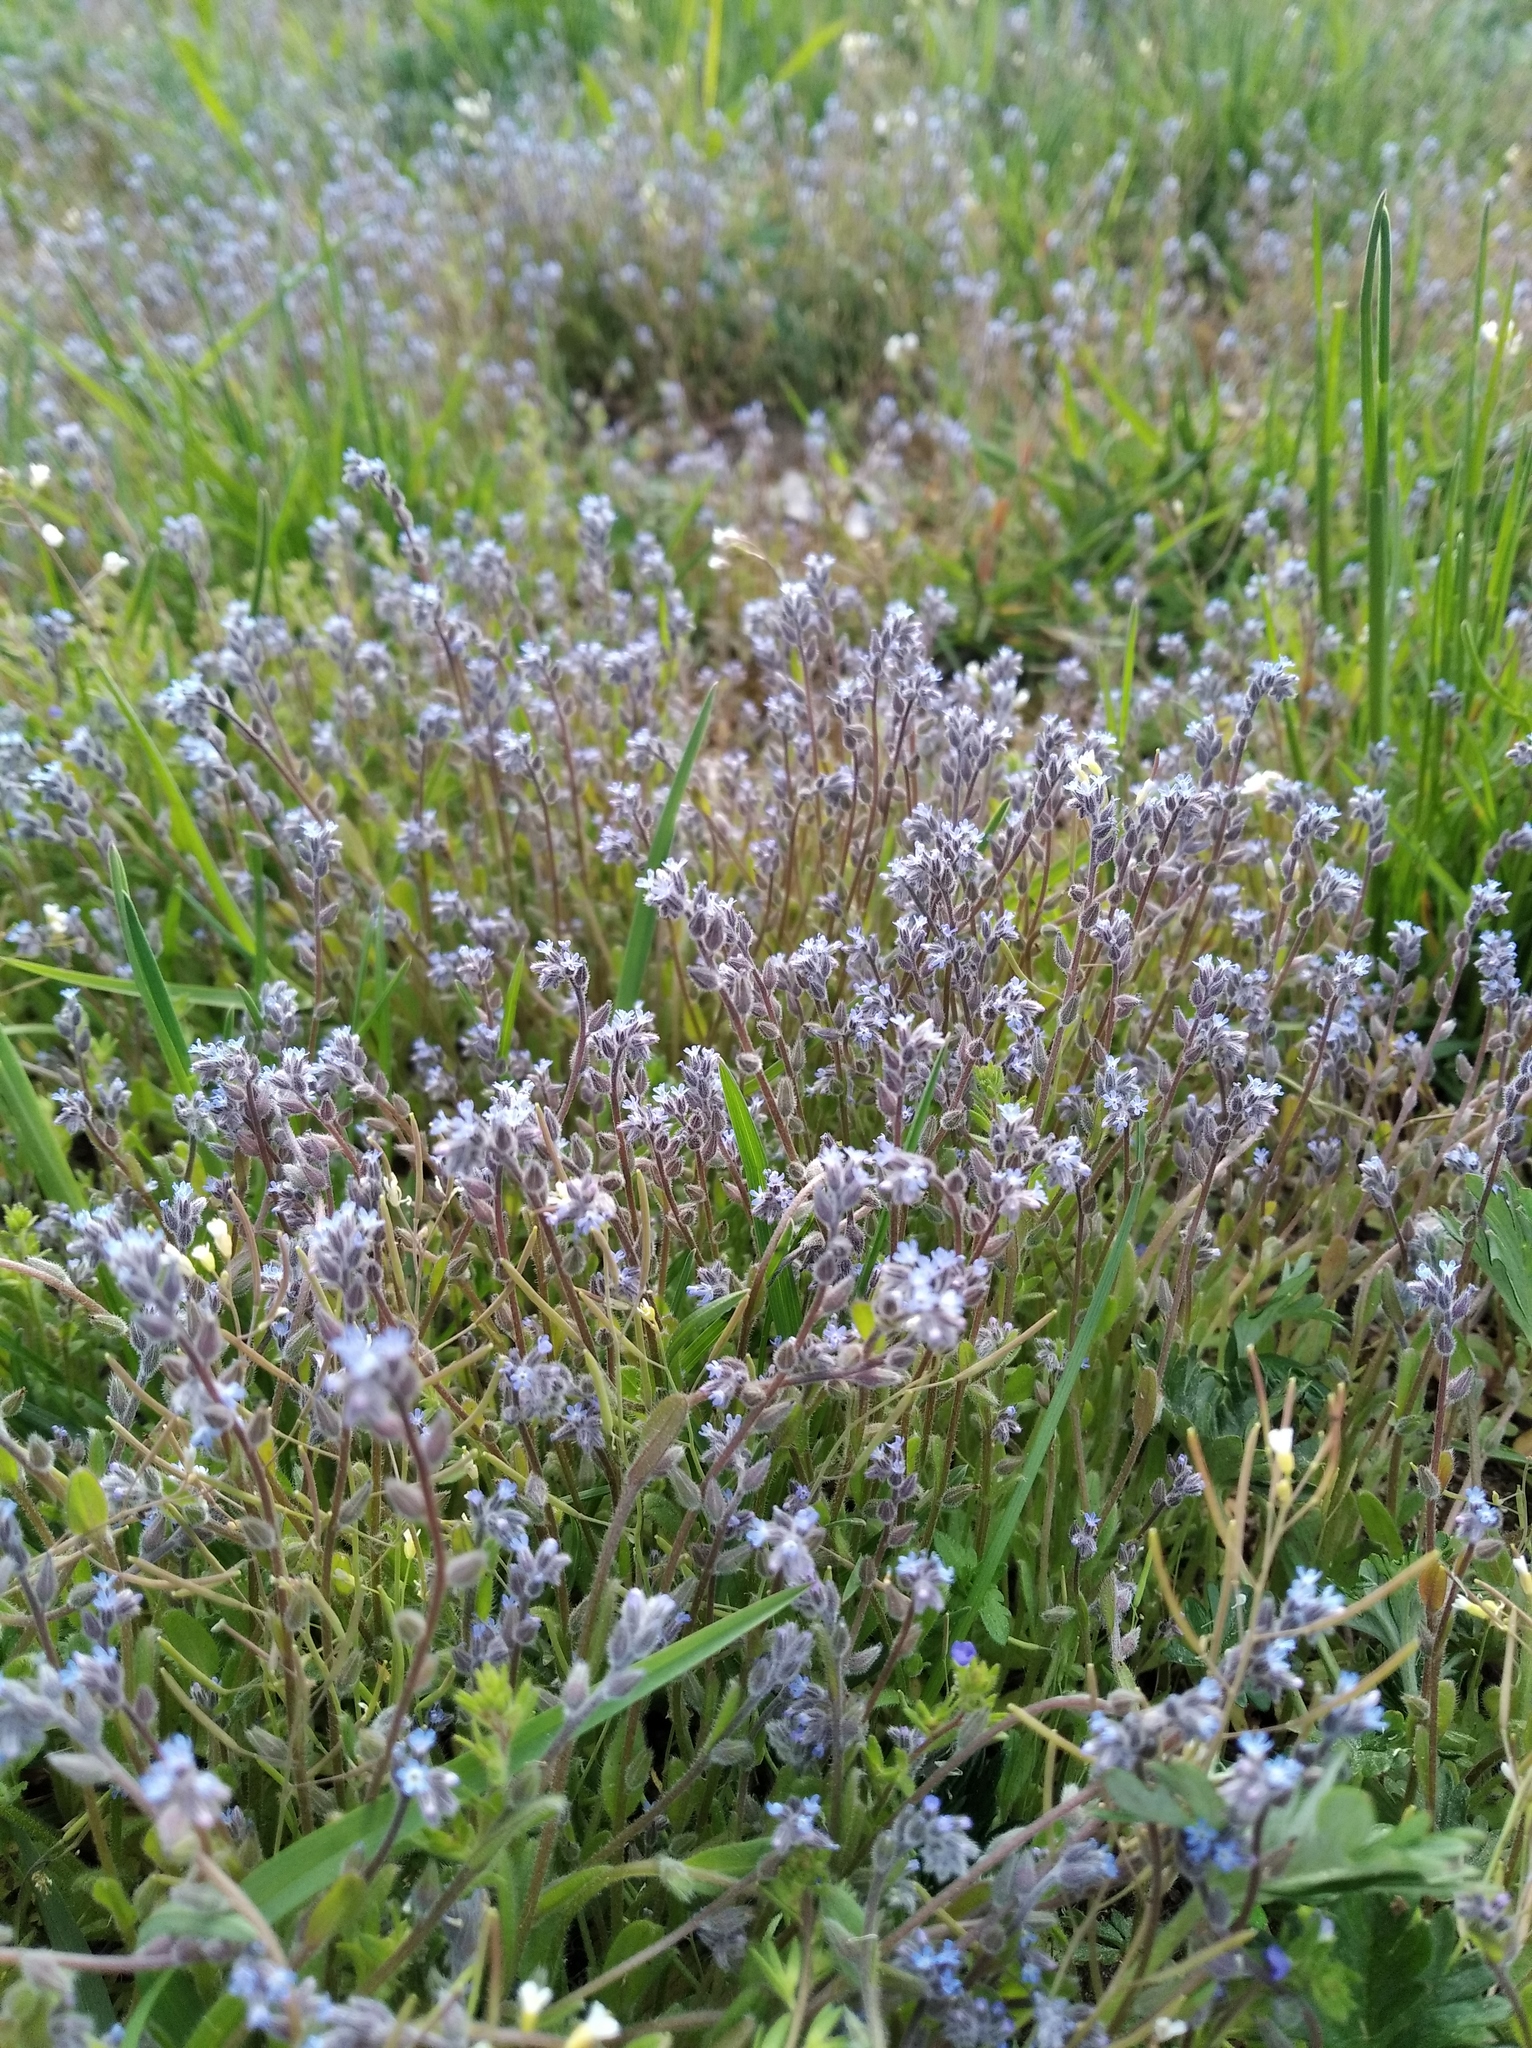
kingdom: Plantae
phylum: Tracheophyta
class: Magnoliopsida
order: Boraginales
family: Boraginaceae
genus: Myosotis
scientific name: Myosotis stricta
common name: Strict forget-me-not
